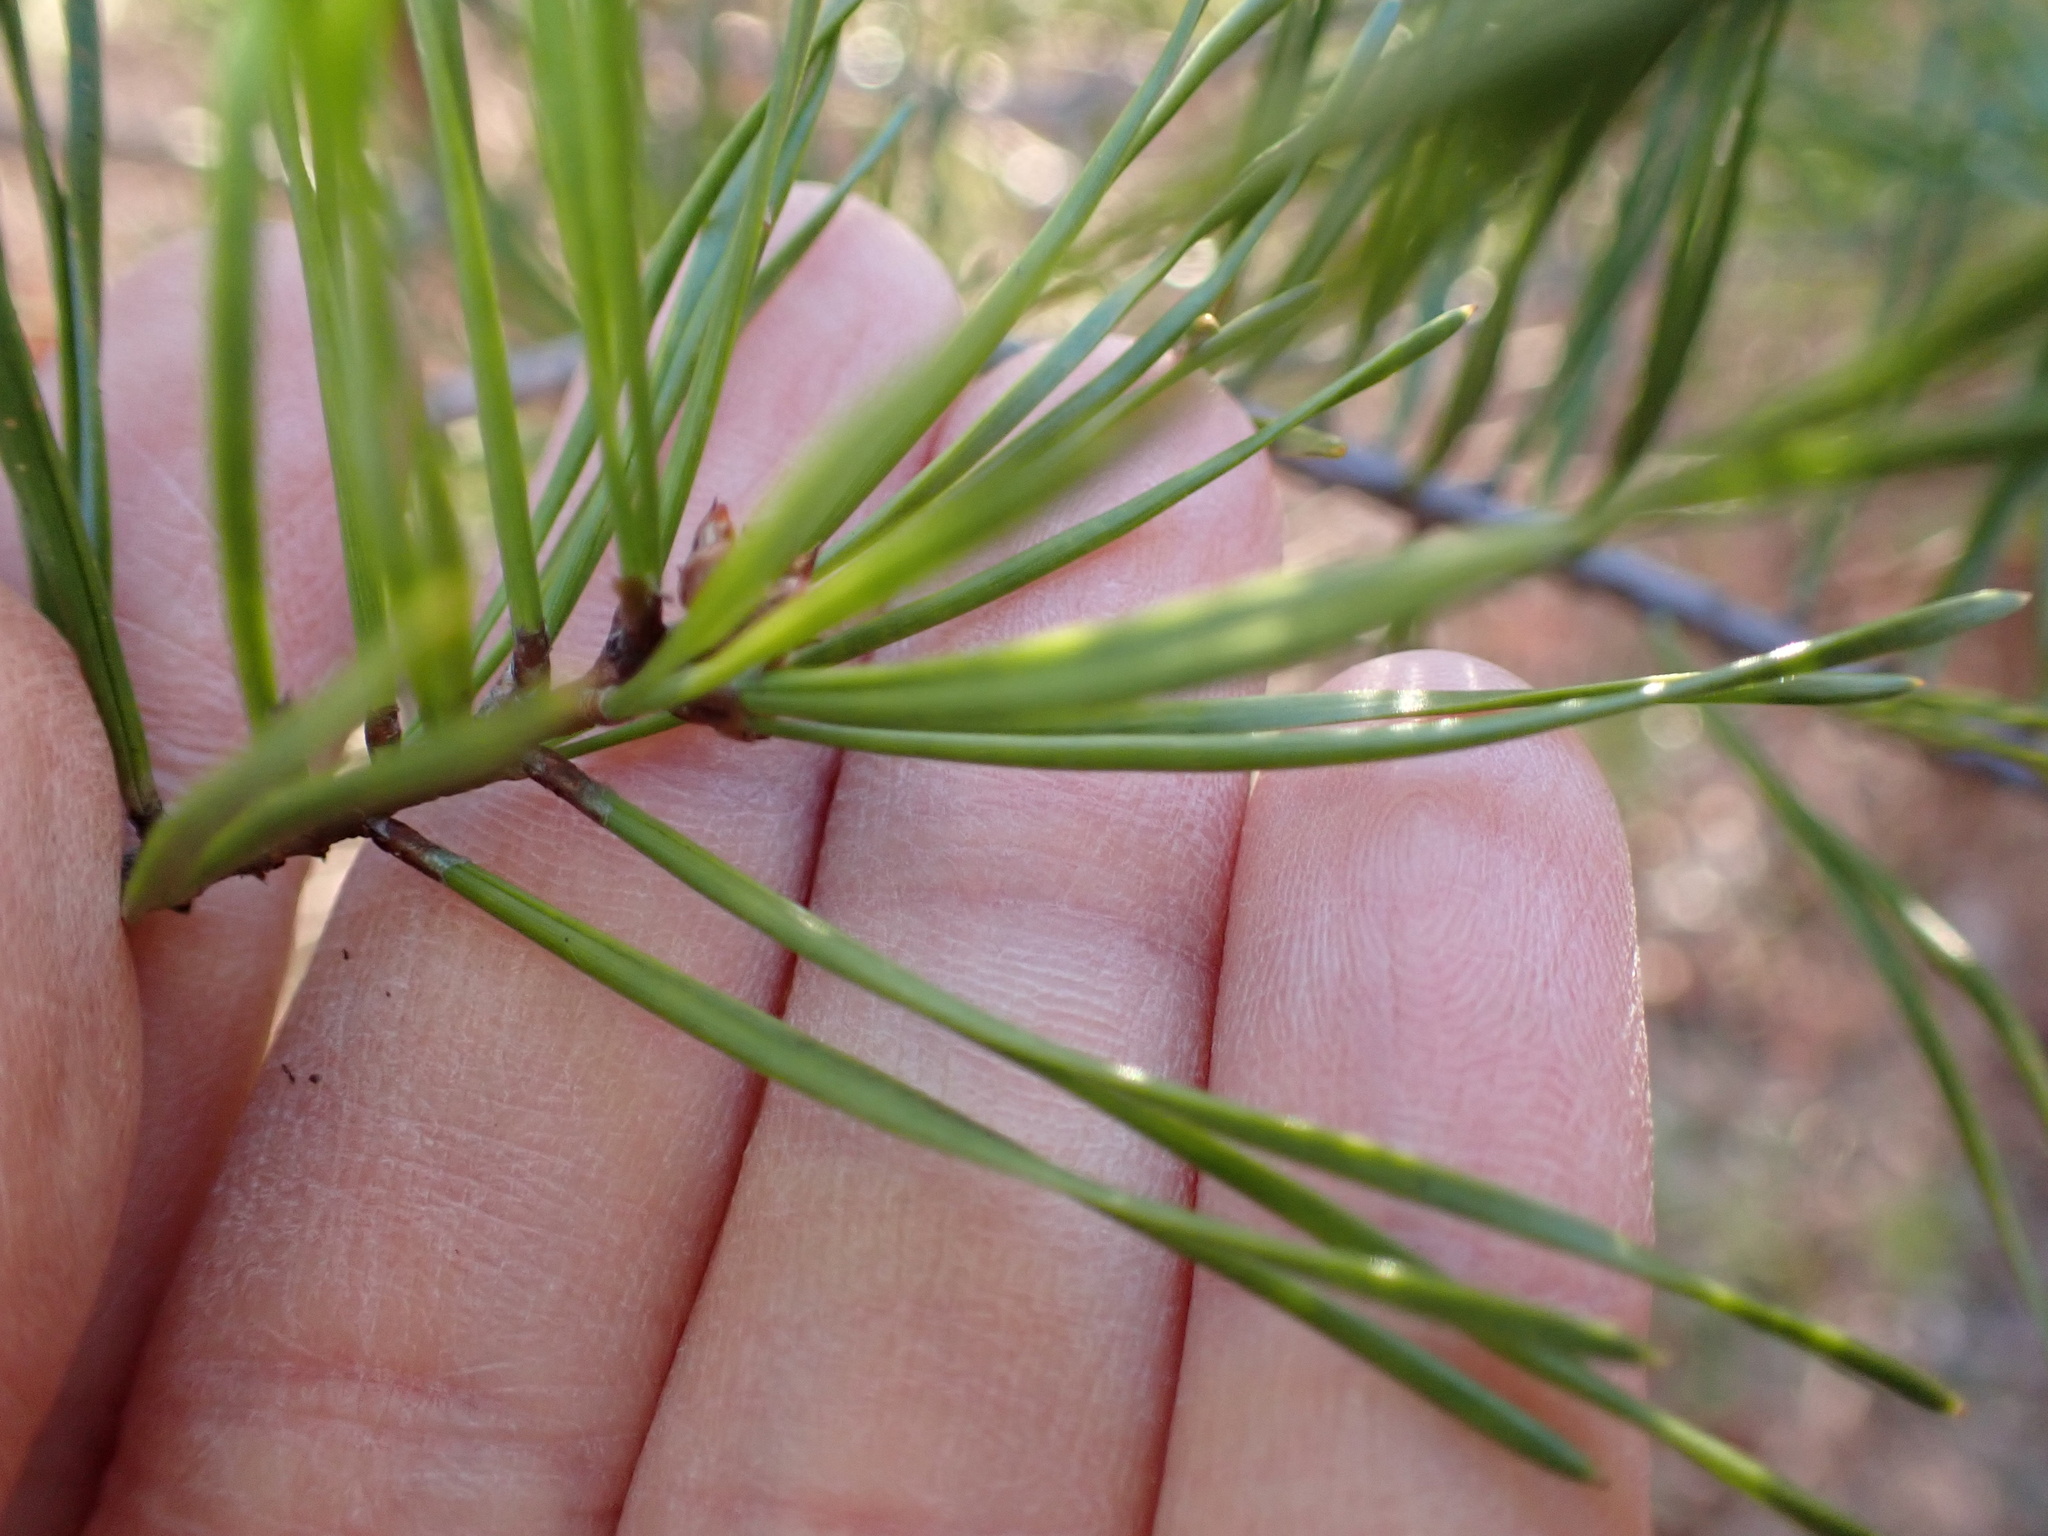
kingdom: Plantae
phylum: Tracheophyta
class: Pinopsida
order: Pinales
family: Pinaceae
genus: Pinus
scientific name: Pinus virginiana
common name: Scrub pine
